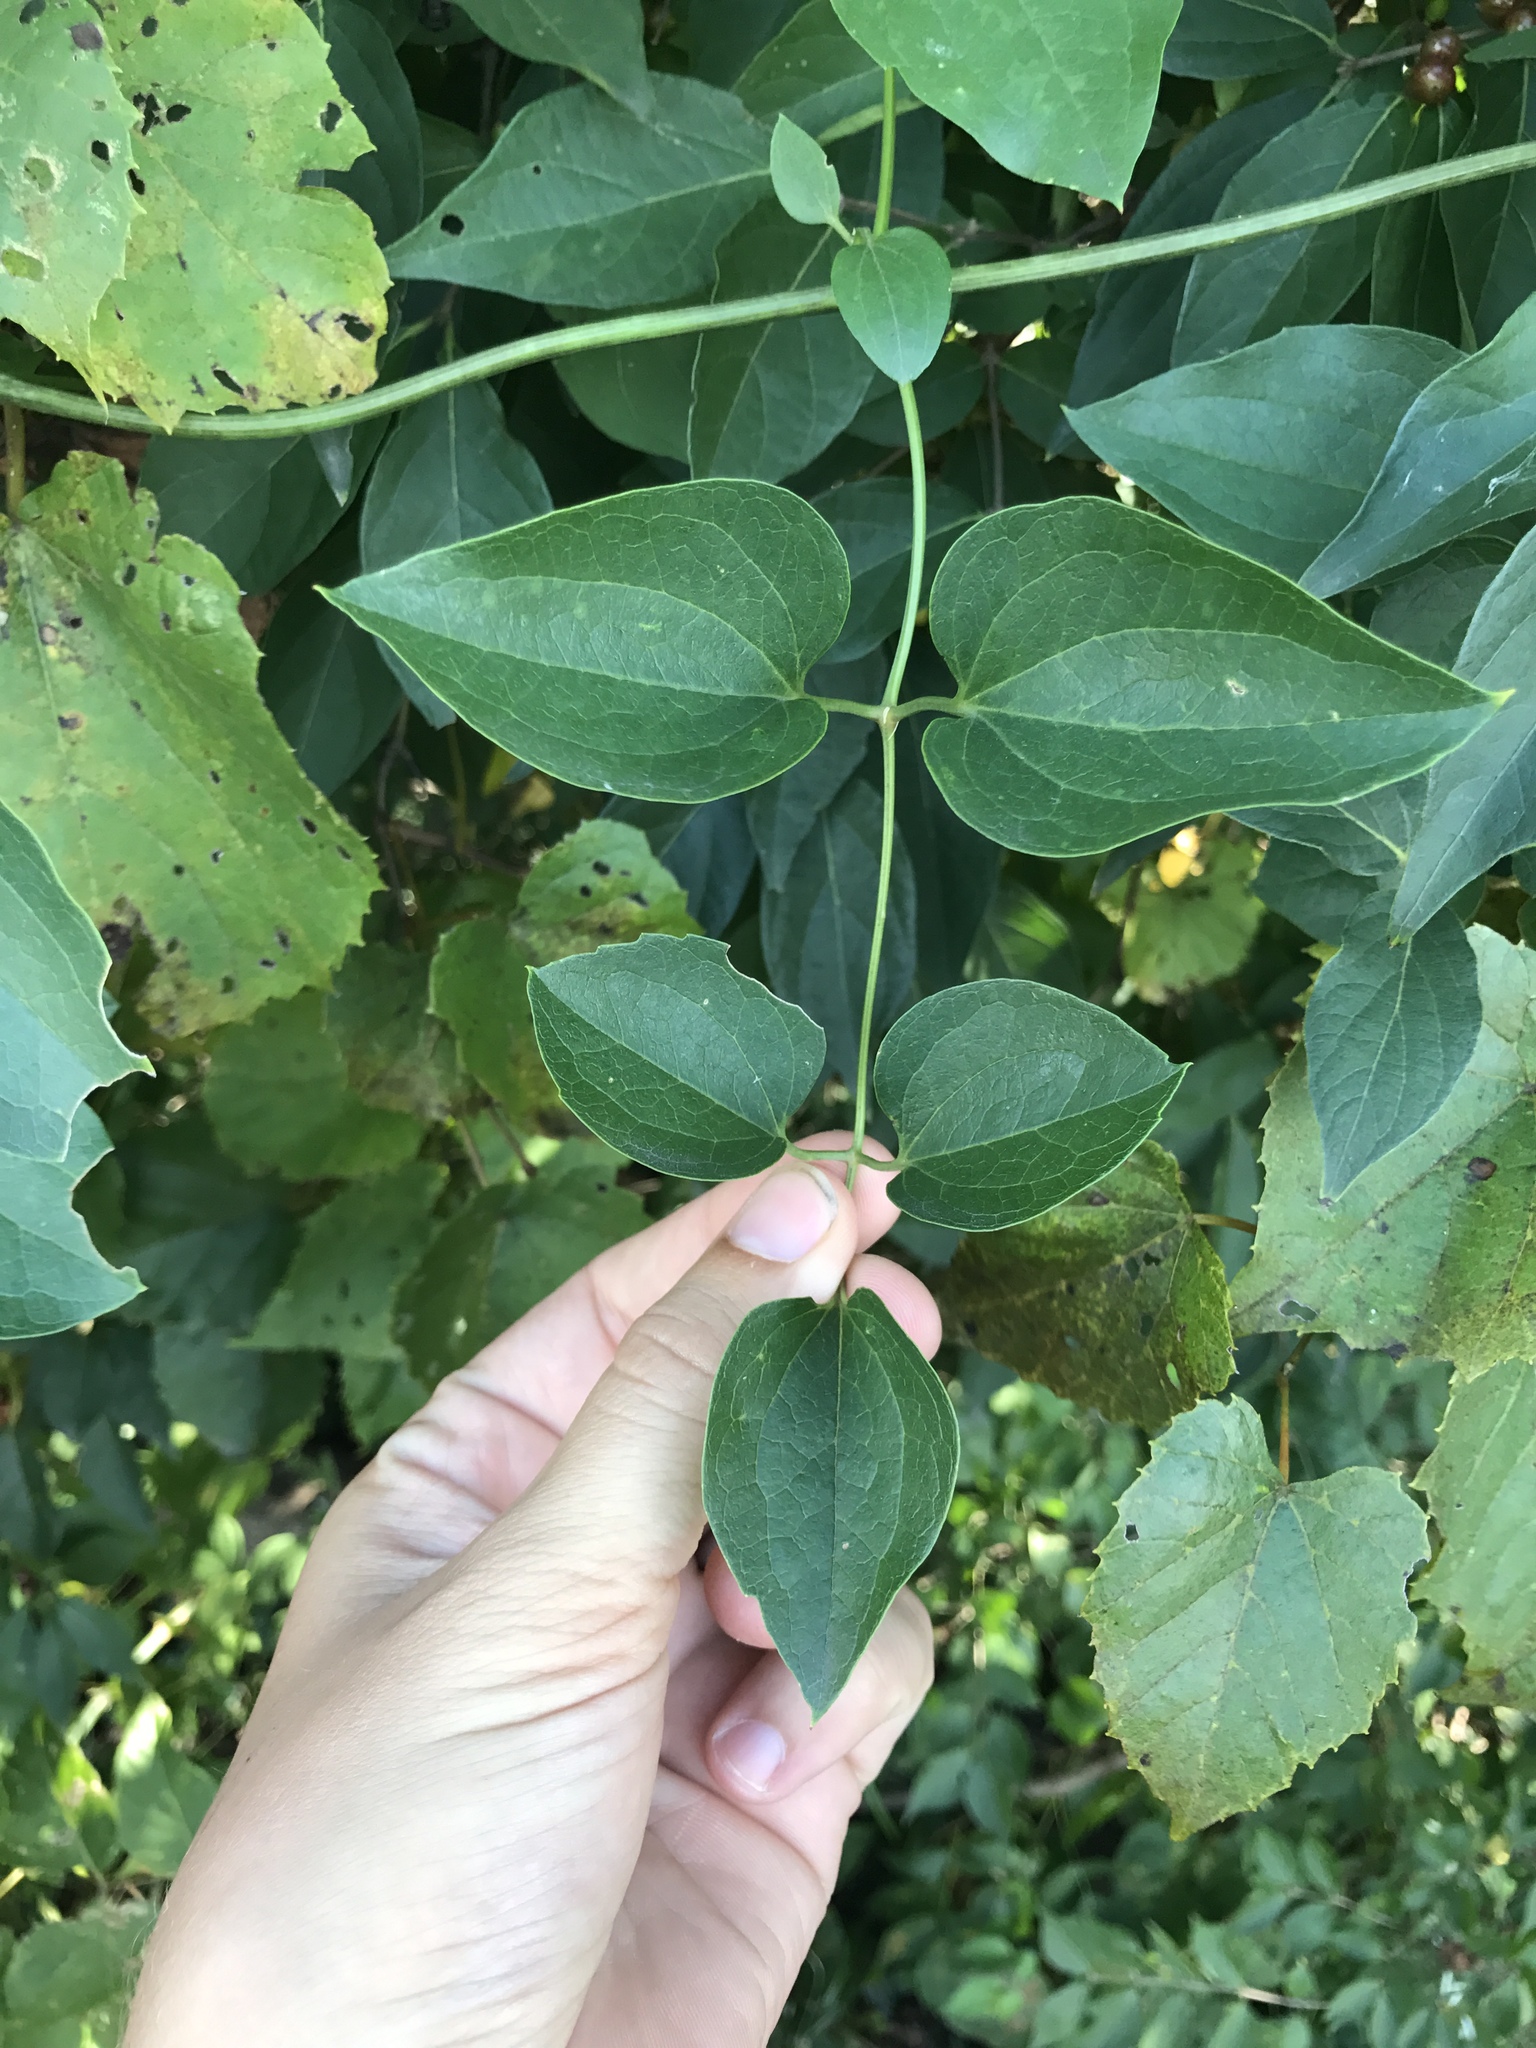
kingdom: Plantae
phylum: Tracheophyta
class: Magnoliopsida
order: Ranunculales
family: Ranunculaceae
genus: Clematis
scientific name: Clematis terniflora
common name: Sweet autumn clematis
